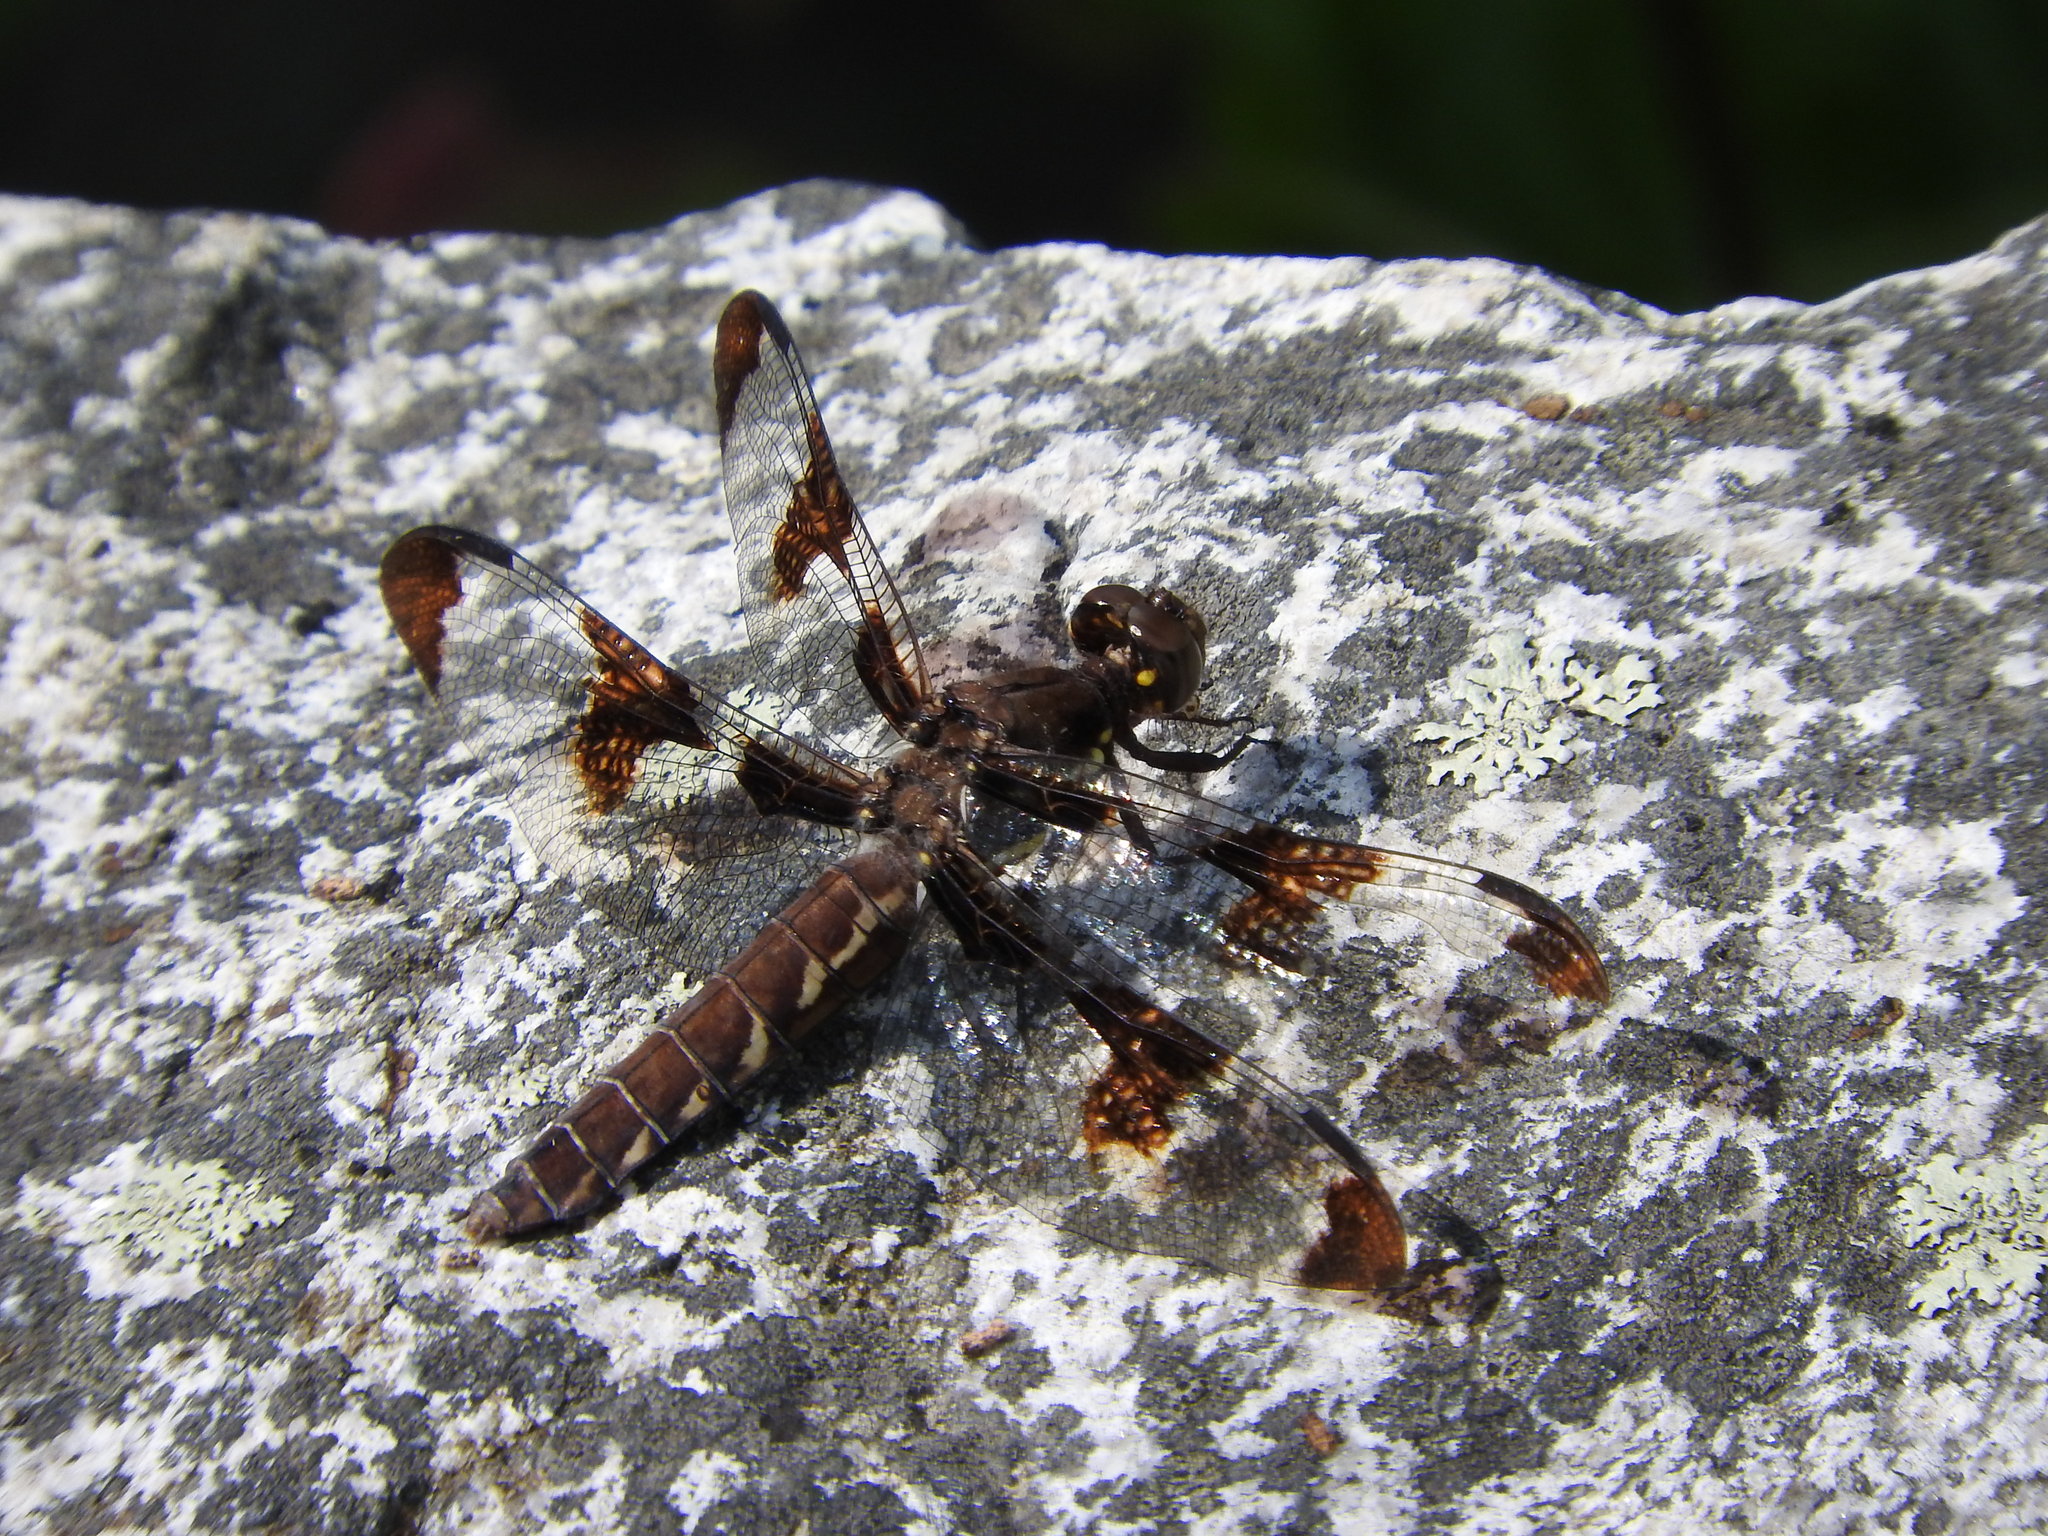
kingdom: Animalia
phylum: Arthropoda
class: Insecta
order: Odonata
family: Libellulidae
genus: Plathemis
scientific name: Plathemis lydia
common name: Common whitetail
